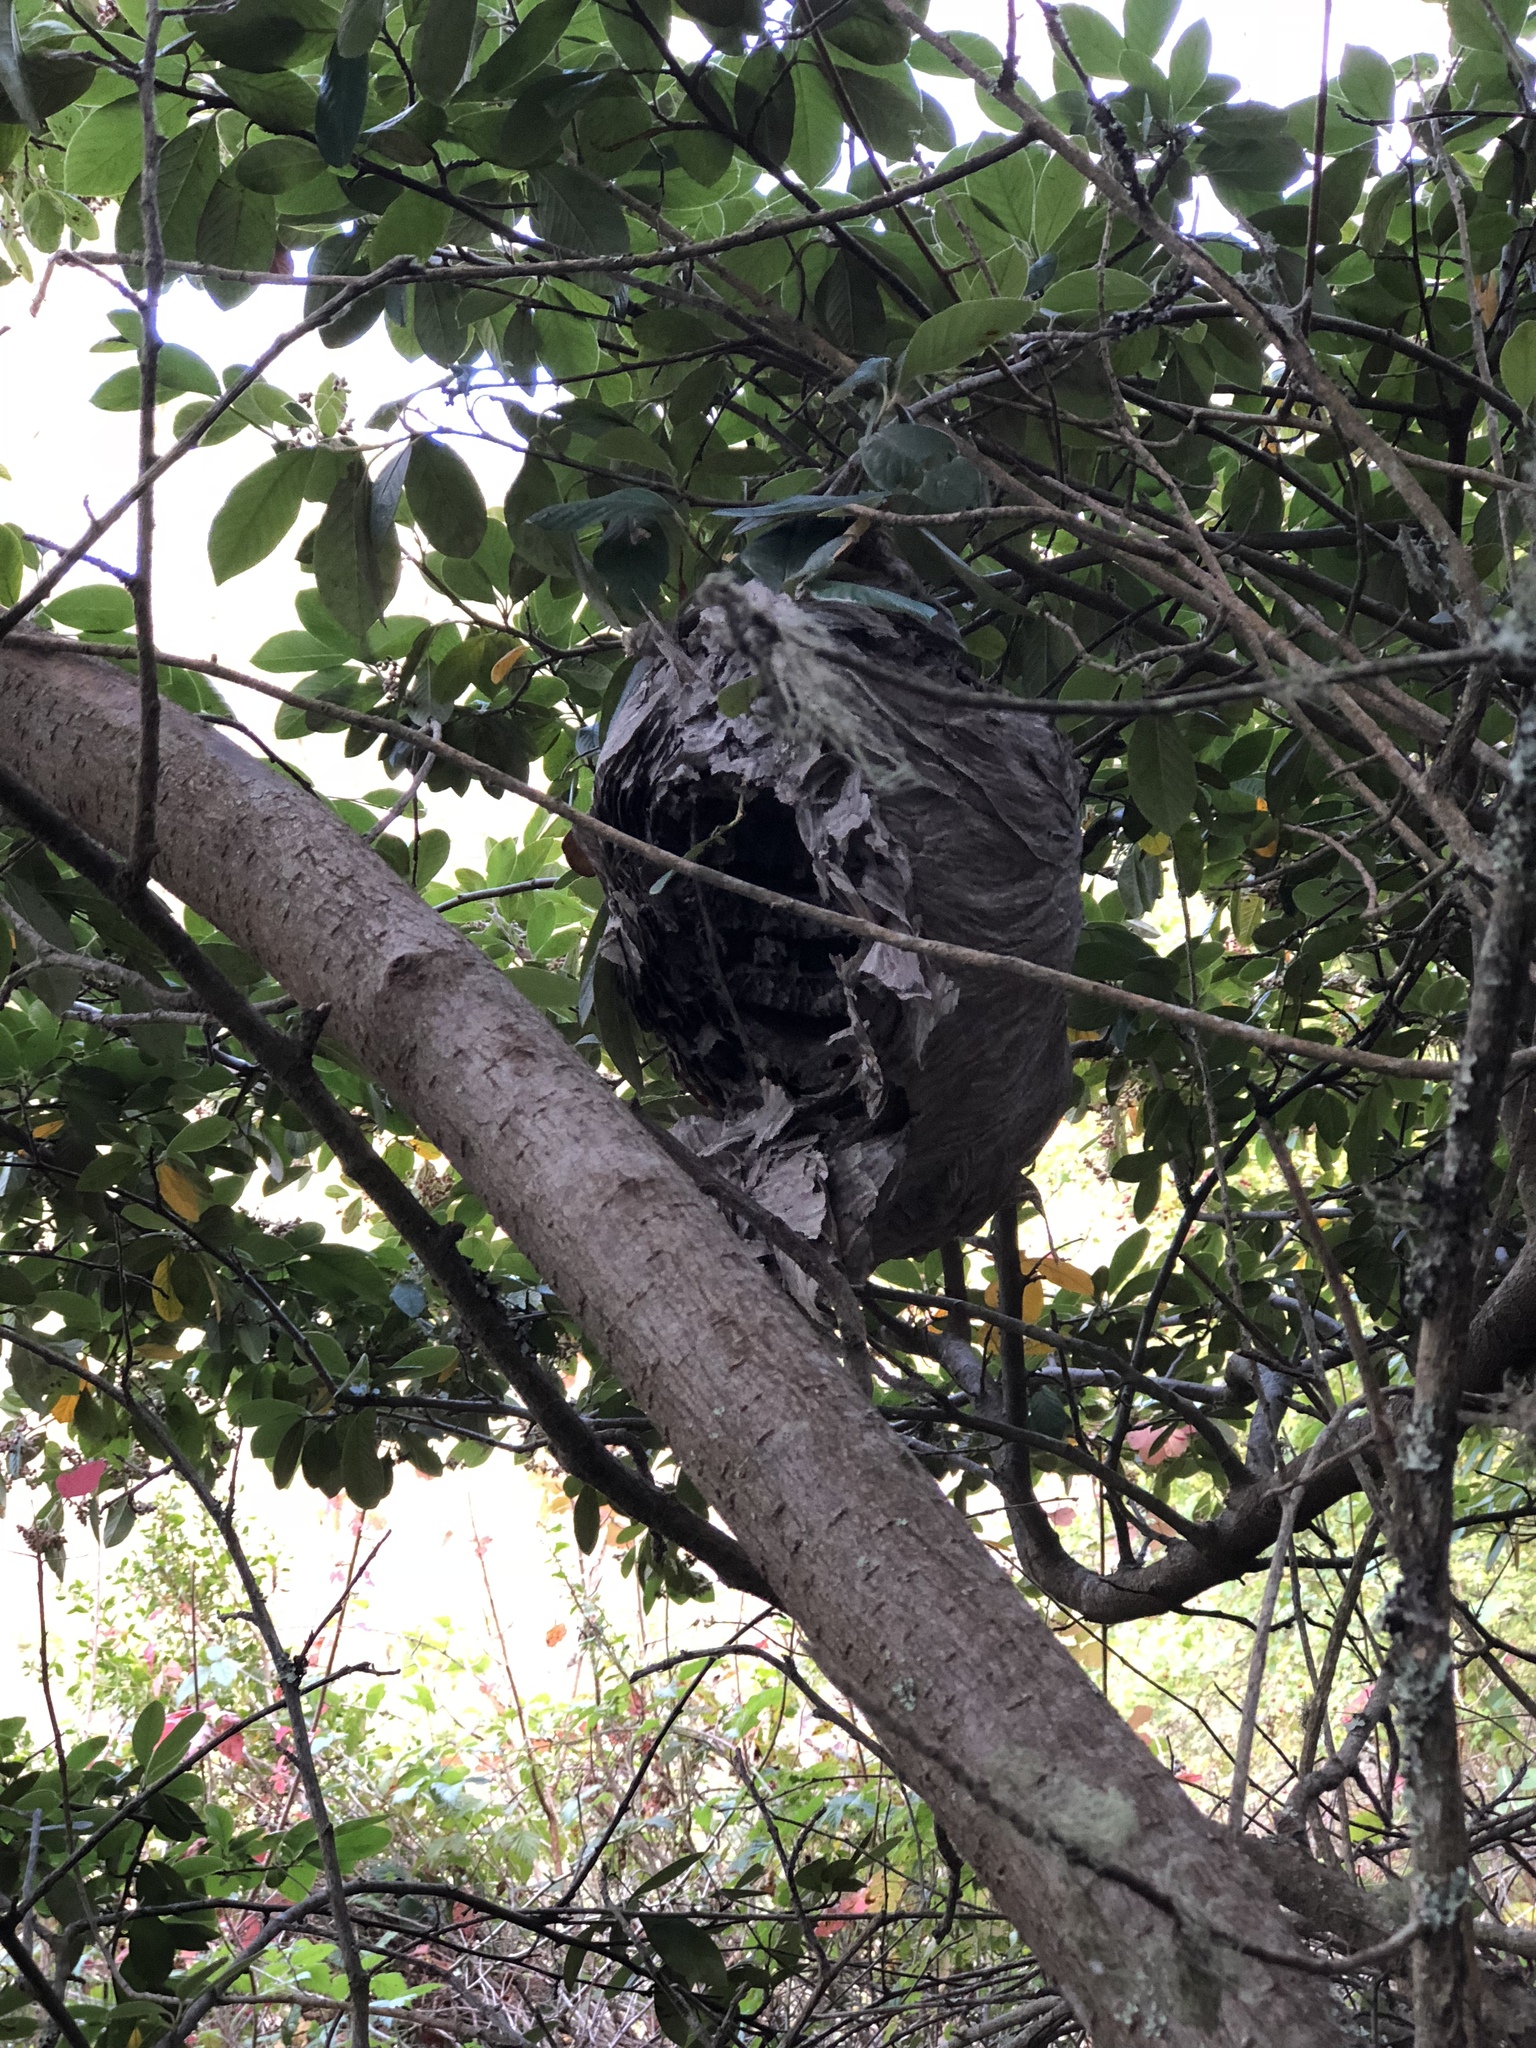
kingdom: Animalia
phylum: Arthropoda
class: Insecta
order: Hymenoptera
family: Vespidae
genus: Dolichovespula
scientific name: Dolichovespula
